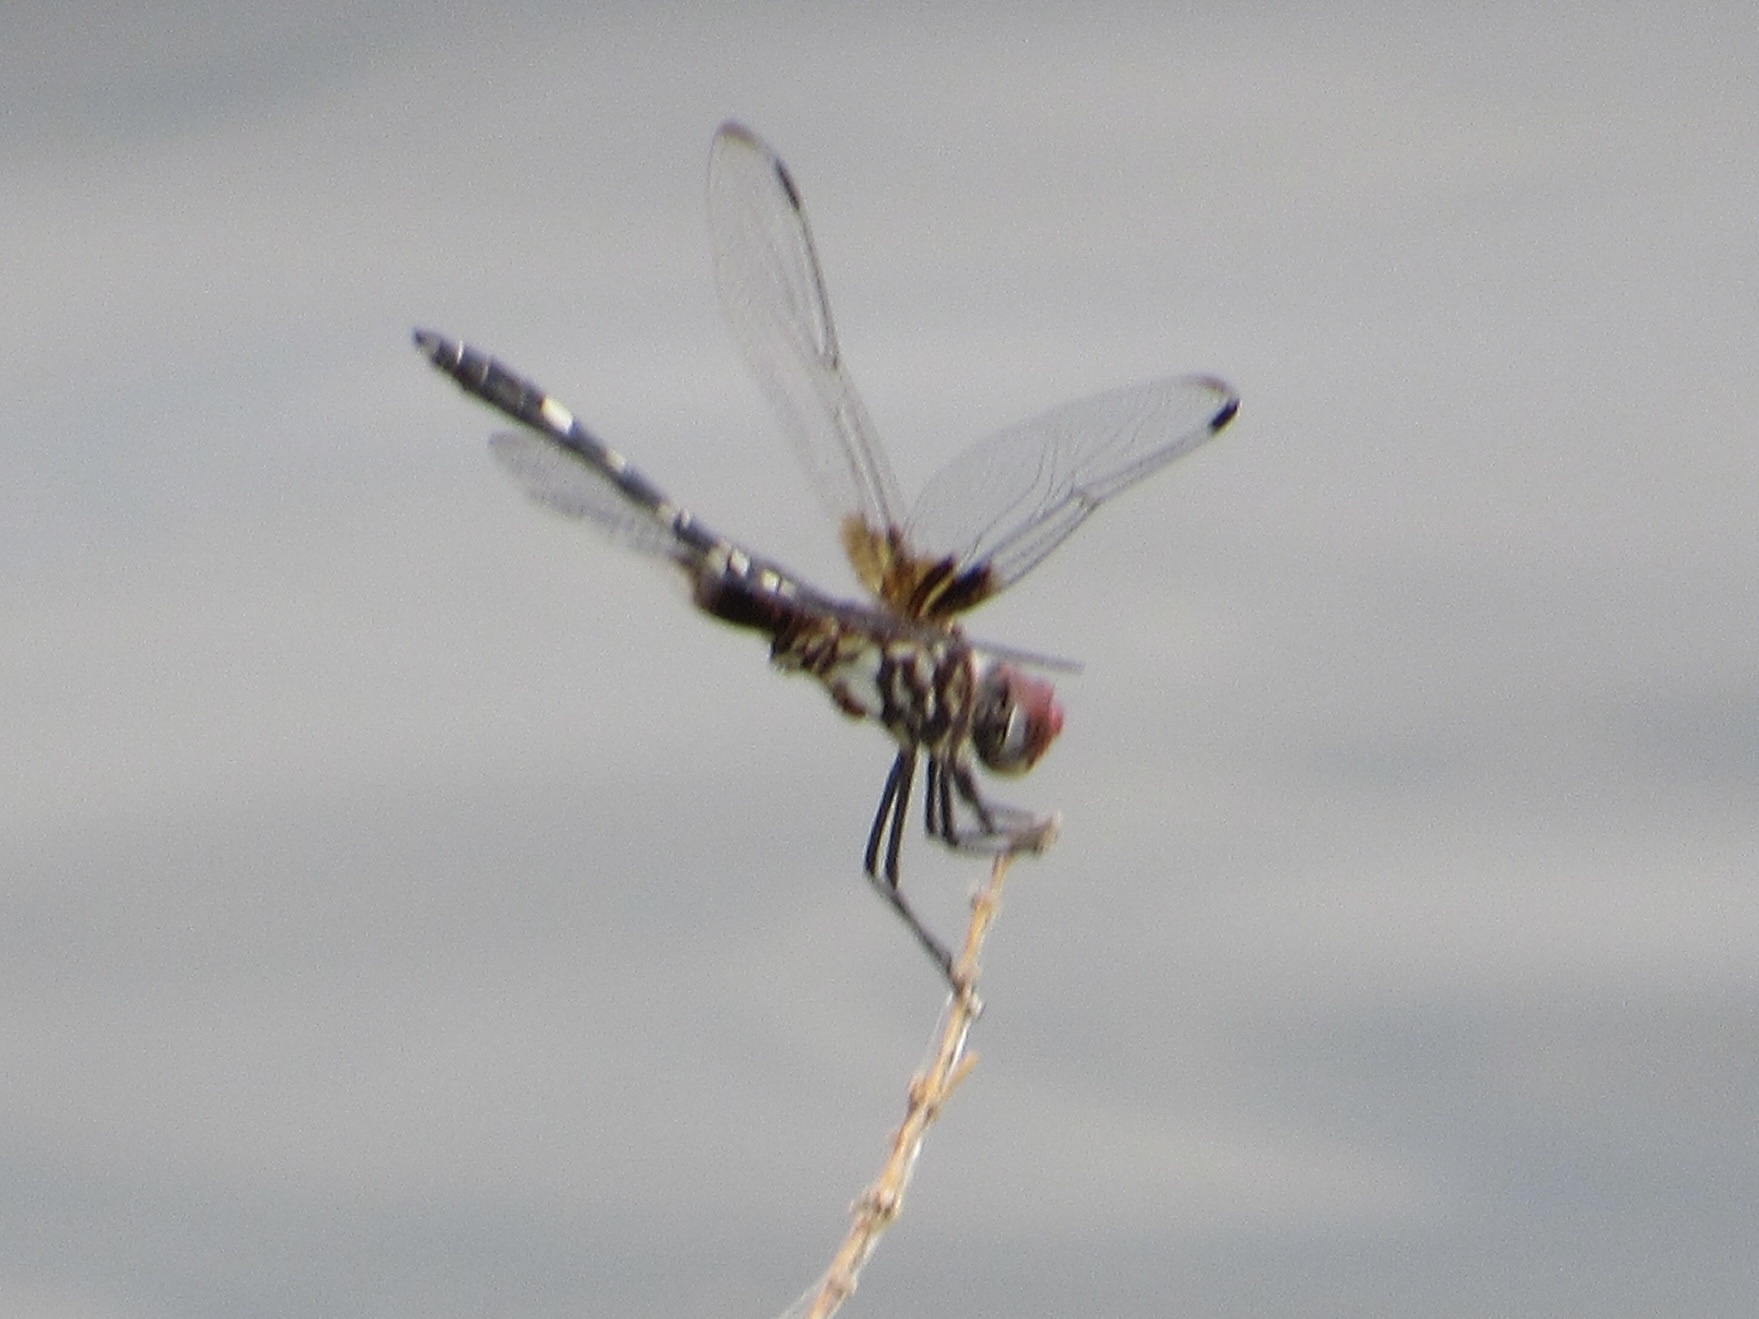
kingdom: Animalia
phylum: Arthropoda
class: Insecta
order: Odonata
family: Libellulidae
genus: Dythemis
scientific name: Dythemis fugax
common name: Checkered setwing
